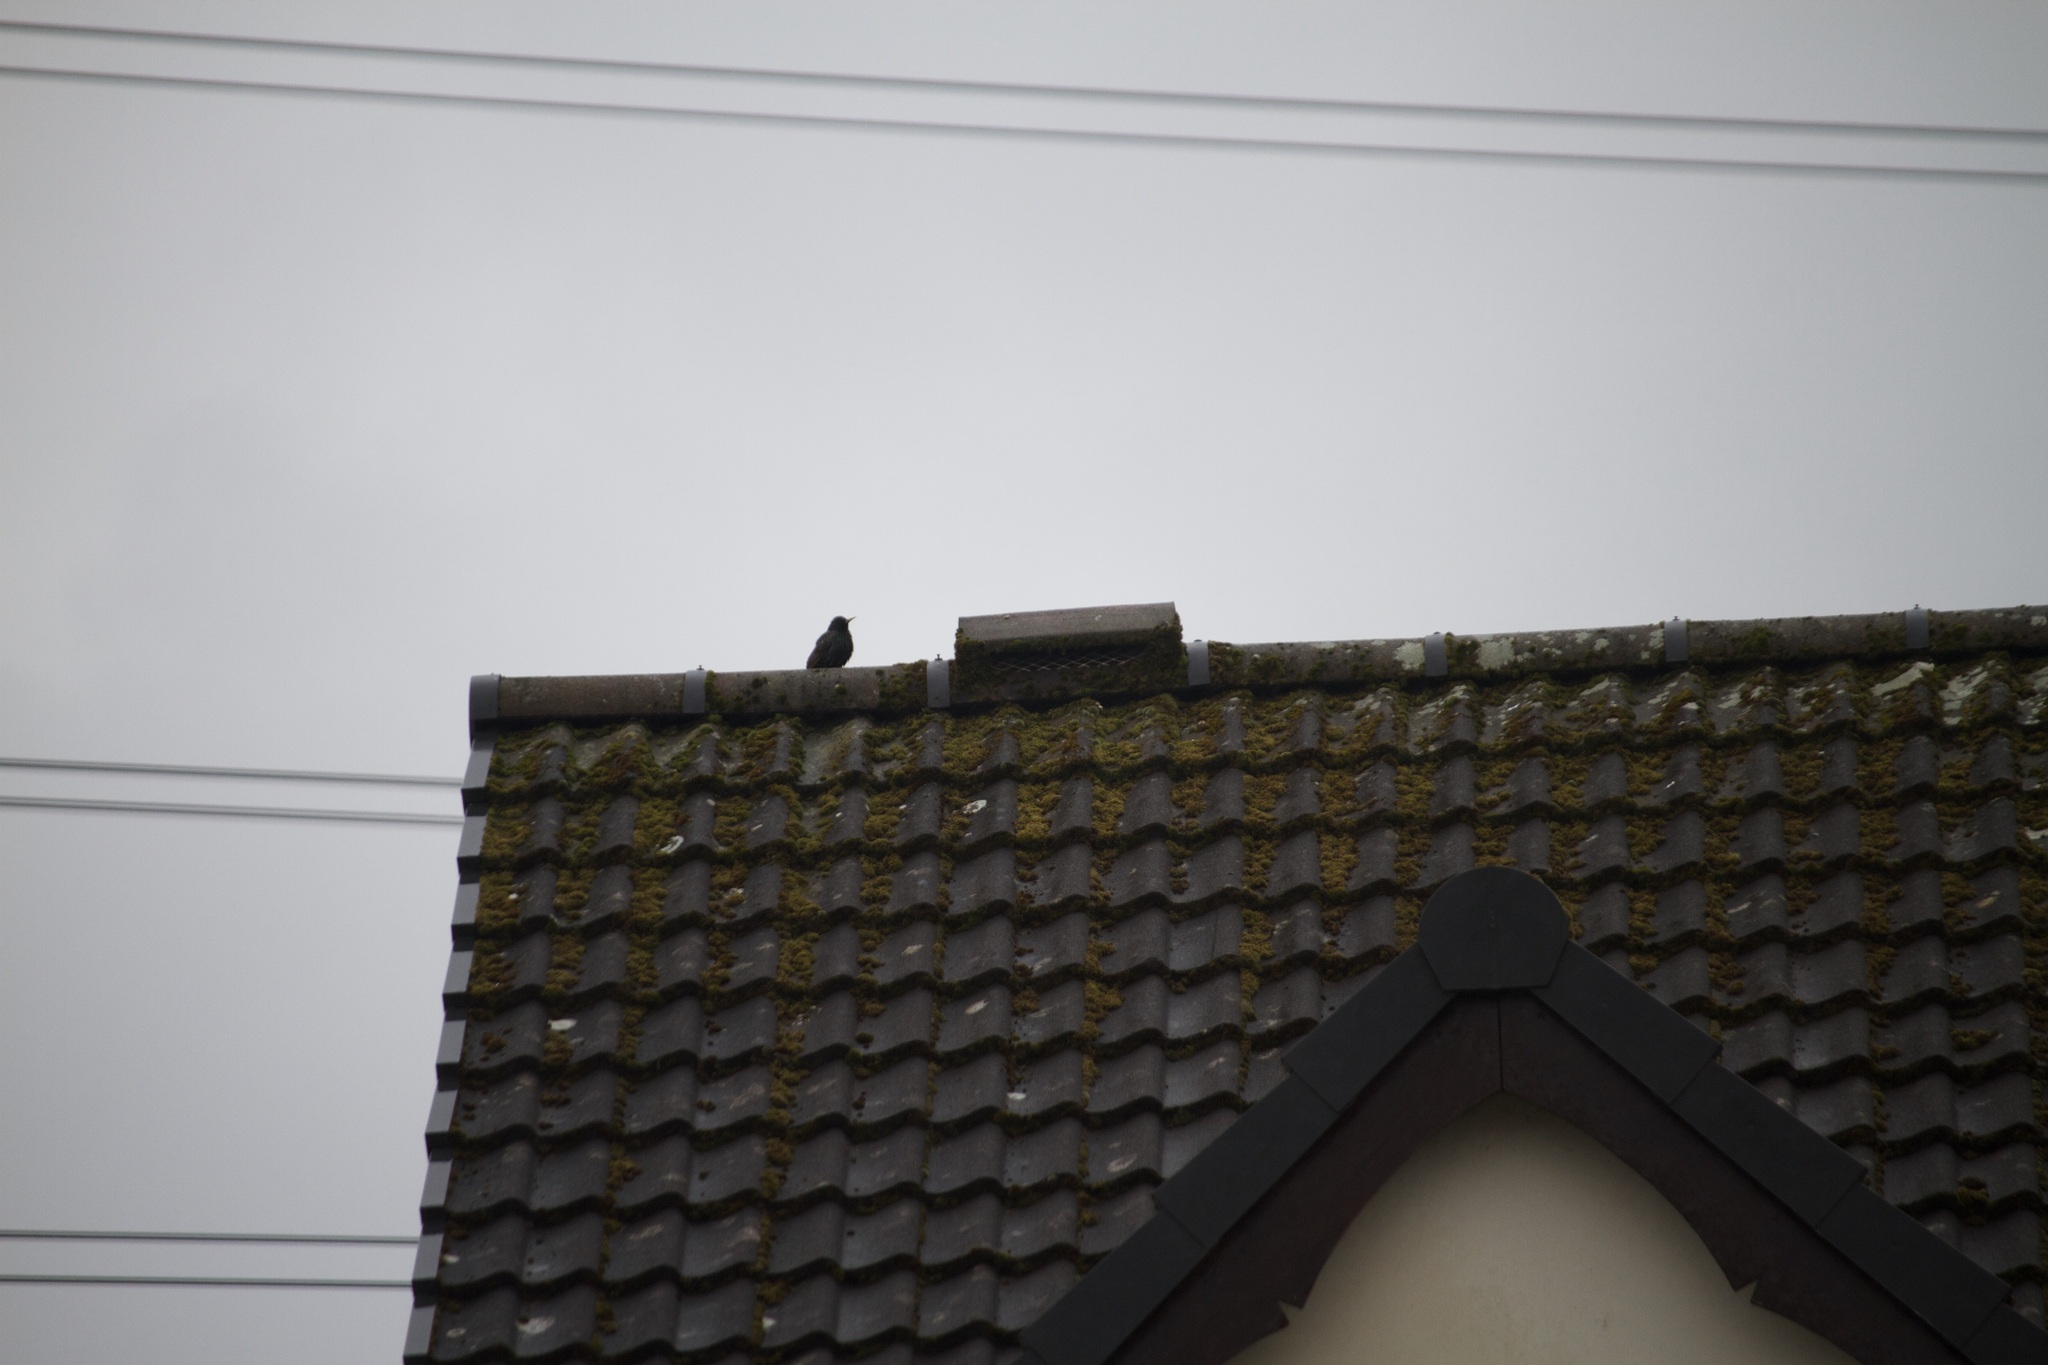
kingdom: Animalia
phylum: Chordata
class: Aves
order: Passeriformes
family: Sturnidae
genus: Sturnus
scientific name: Sturnus vulgaris
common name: Common starling
